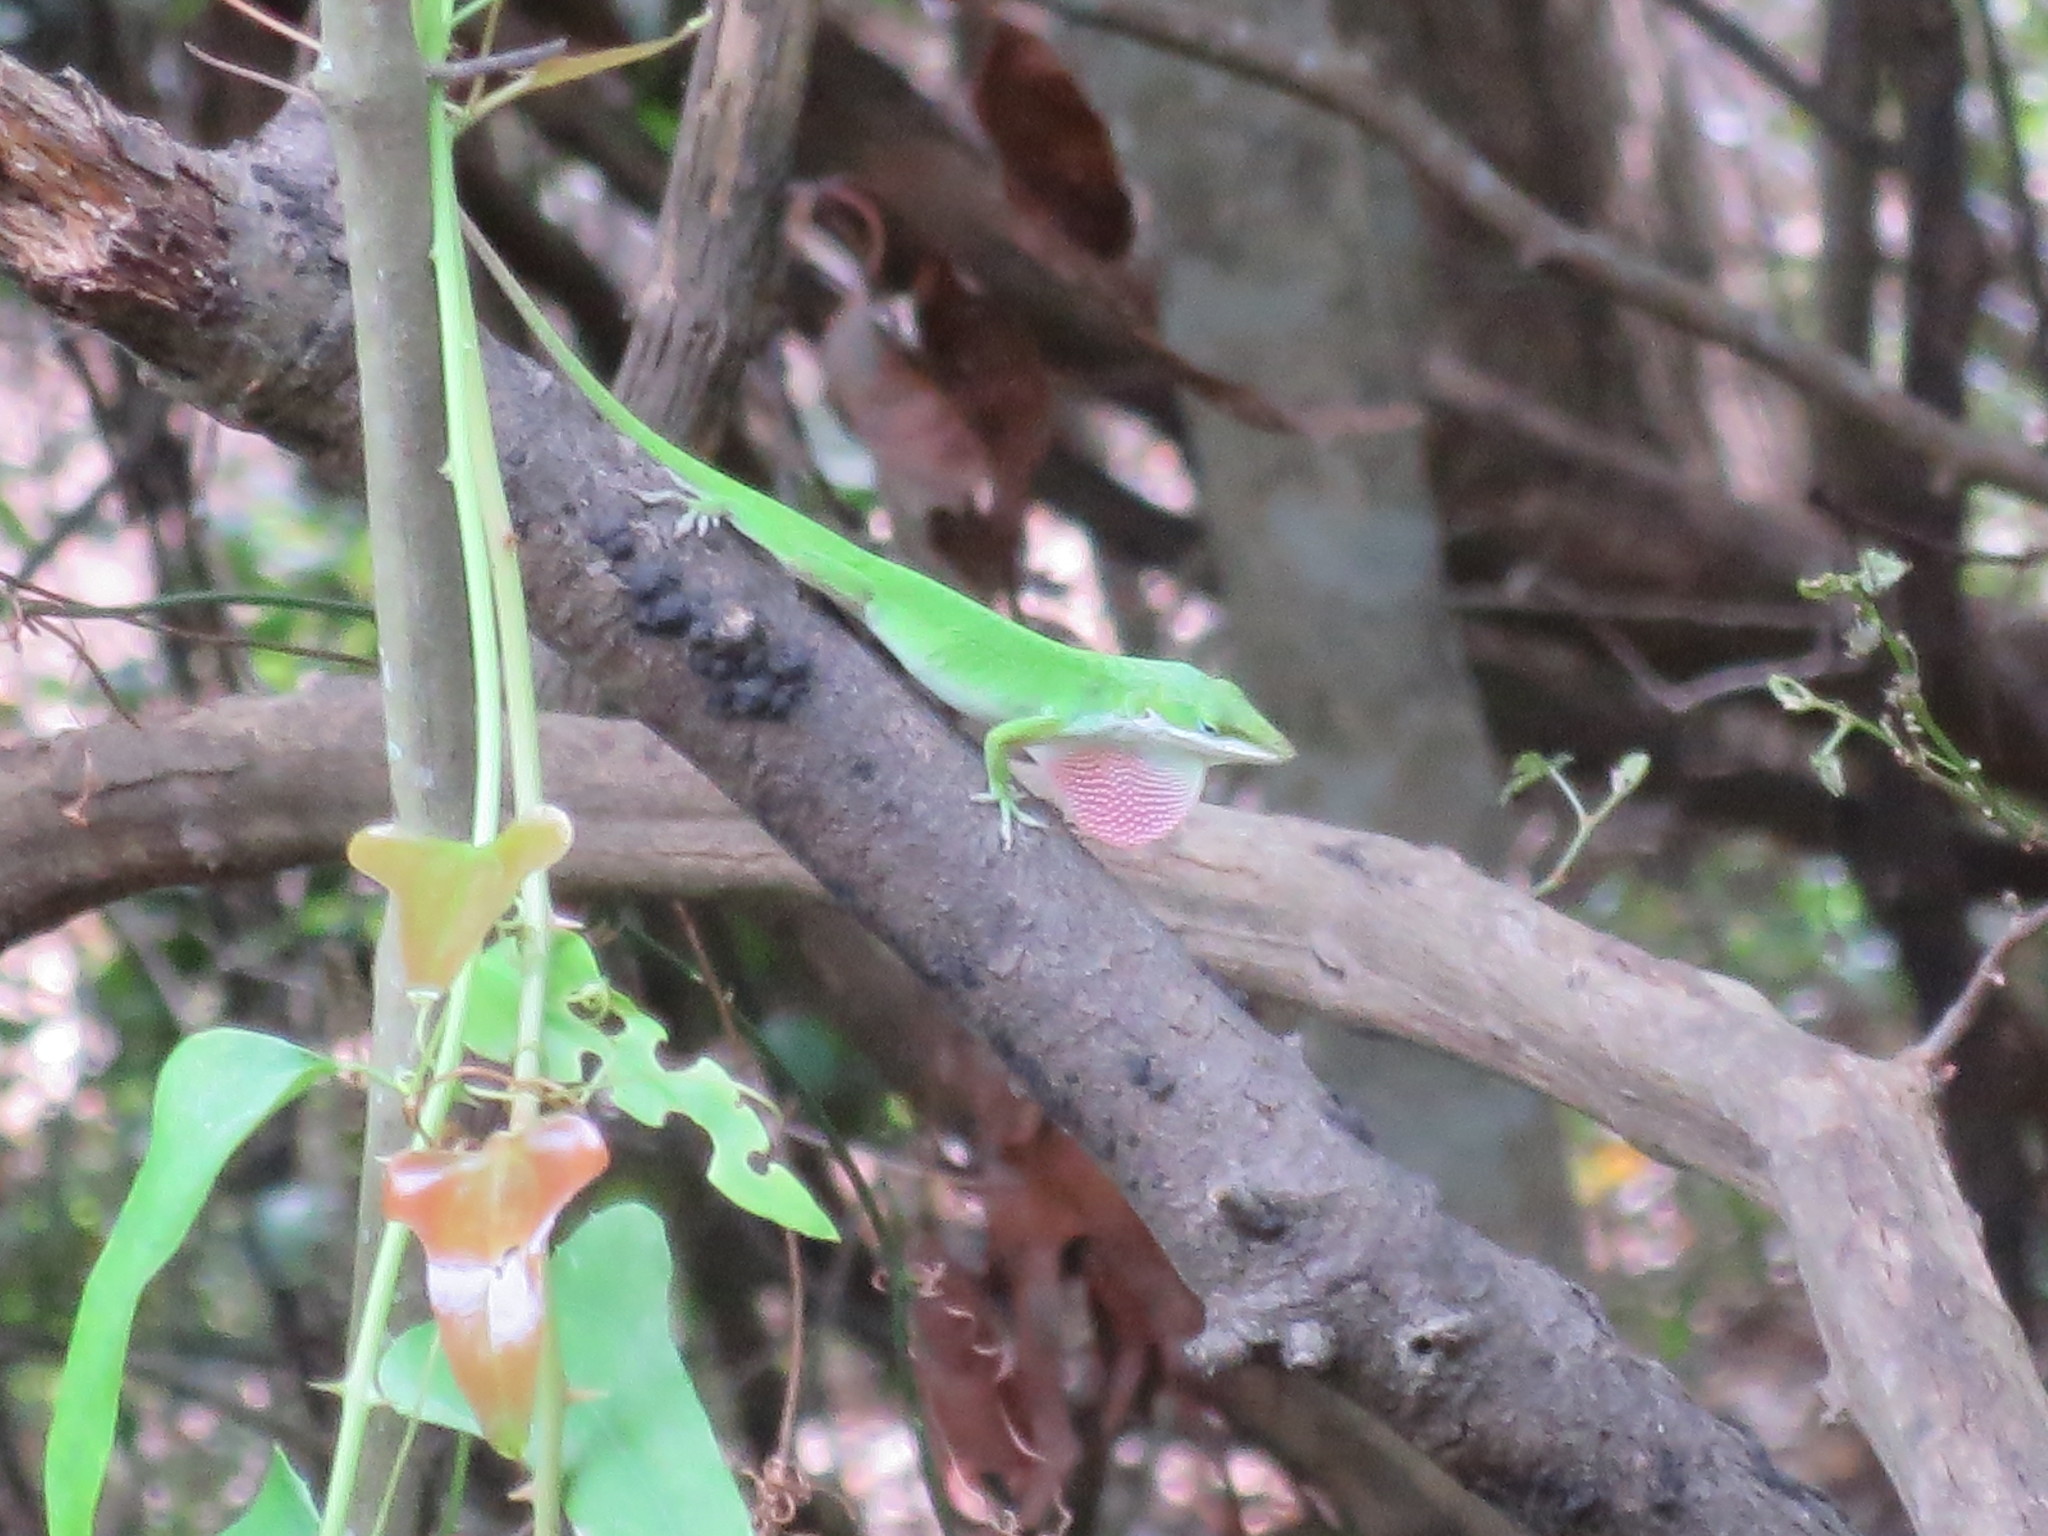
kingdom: Animalia
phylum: Chordata
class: Squamata
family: Dactyloidae
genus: Anolis
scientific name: Anolis carolinensis
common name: Green anole
